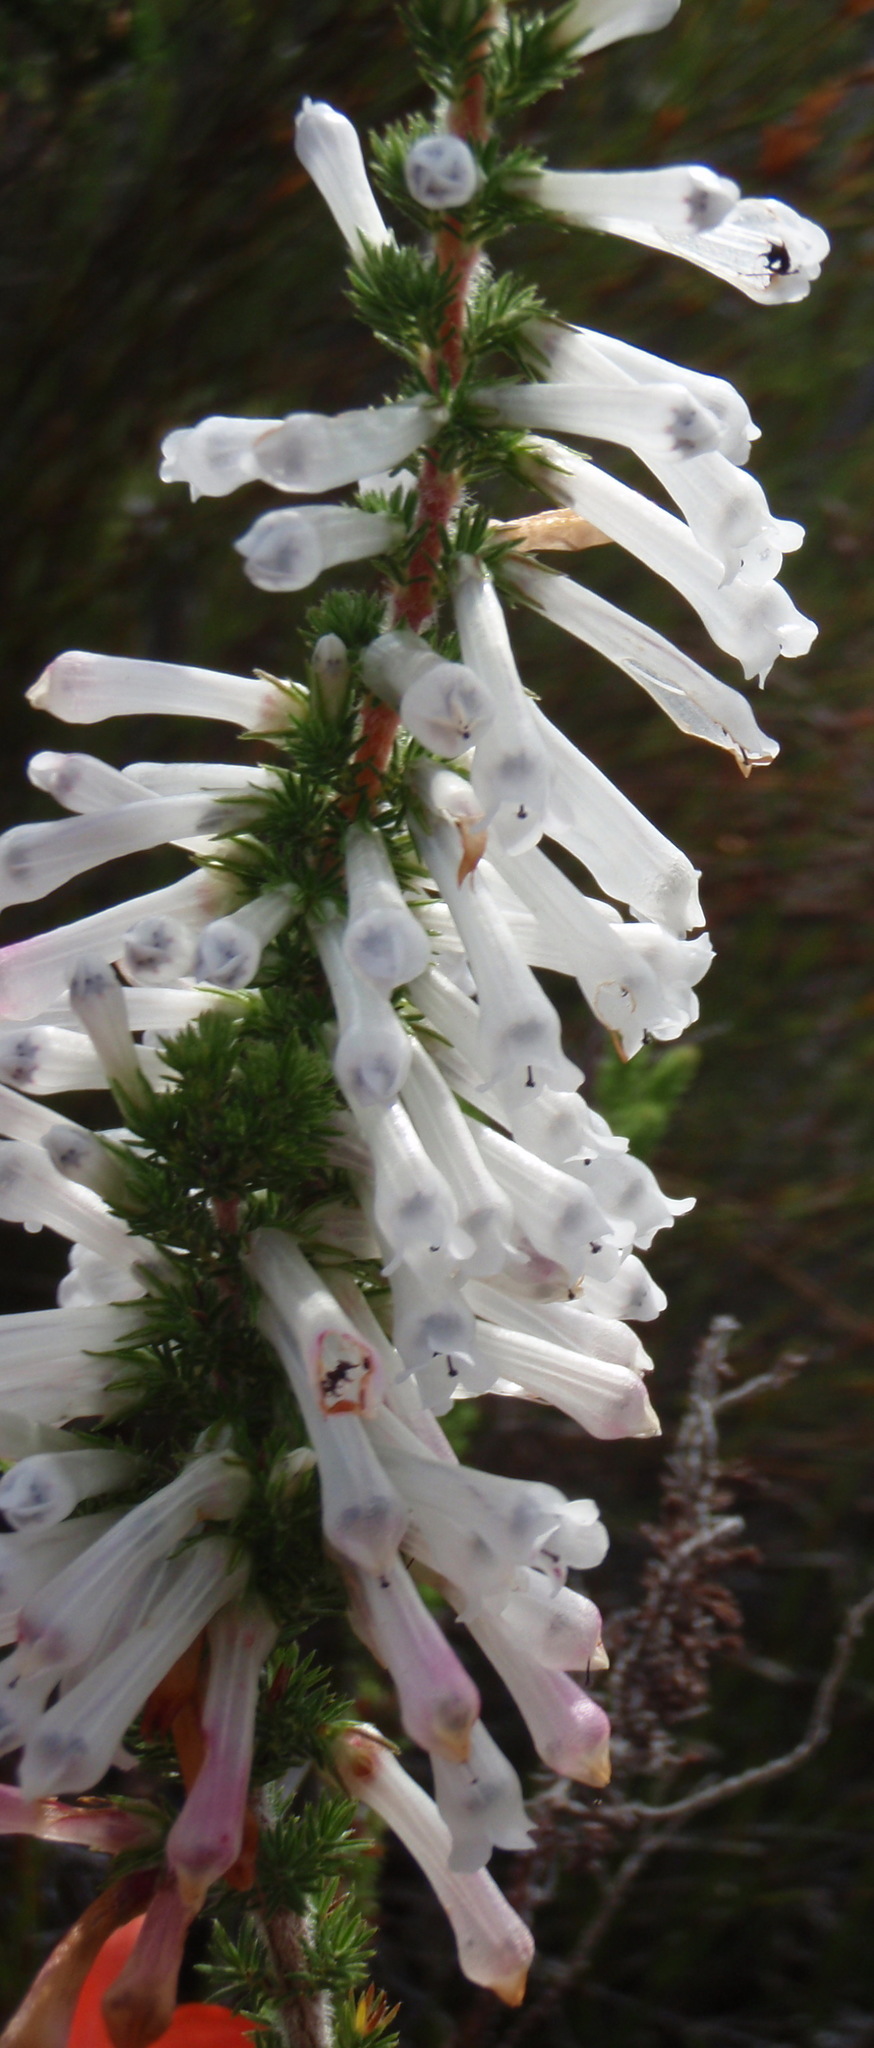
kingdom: Plantae
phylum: Tracheophyta
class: Magnoliopsida
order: Ericales
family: Ericaceae
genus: Erica
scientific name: Erica colorans
